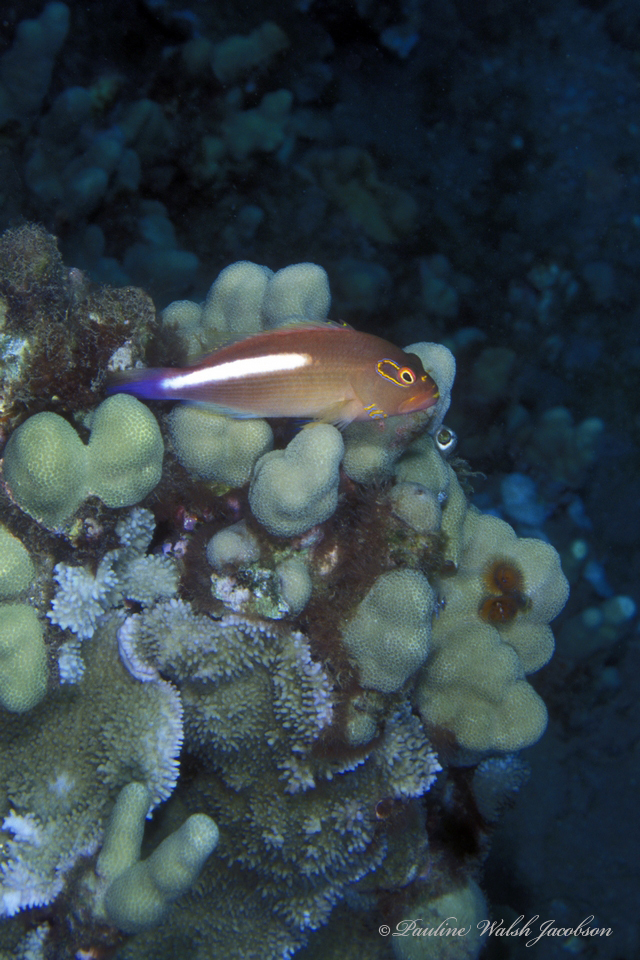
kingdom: Animalia
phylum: Chordata
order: Perciformes
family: Cirrhitidae
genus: Paracirrhites
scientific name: Paracirrhites arcatus
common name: Arc-eye hawkfish
